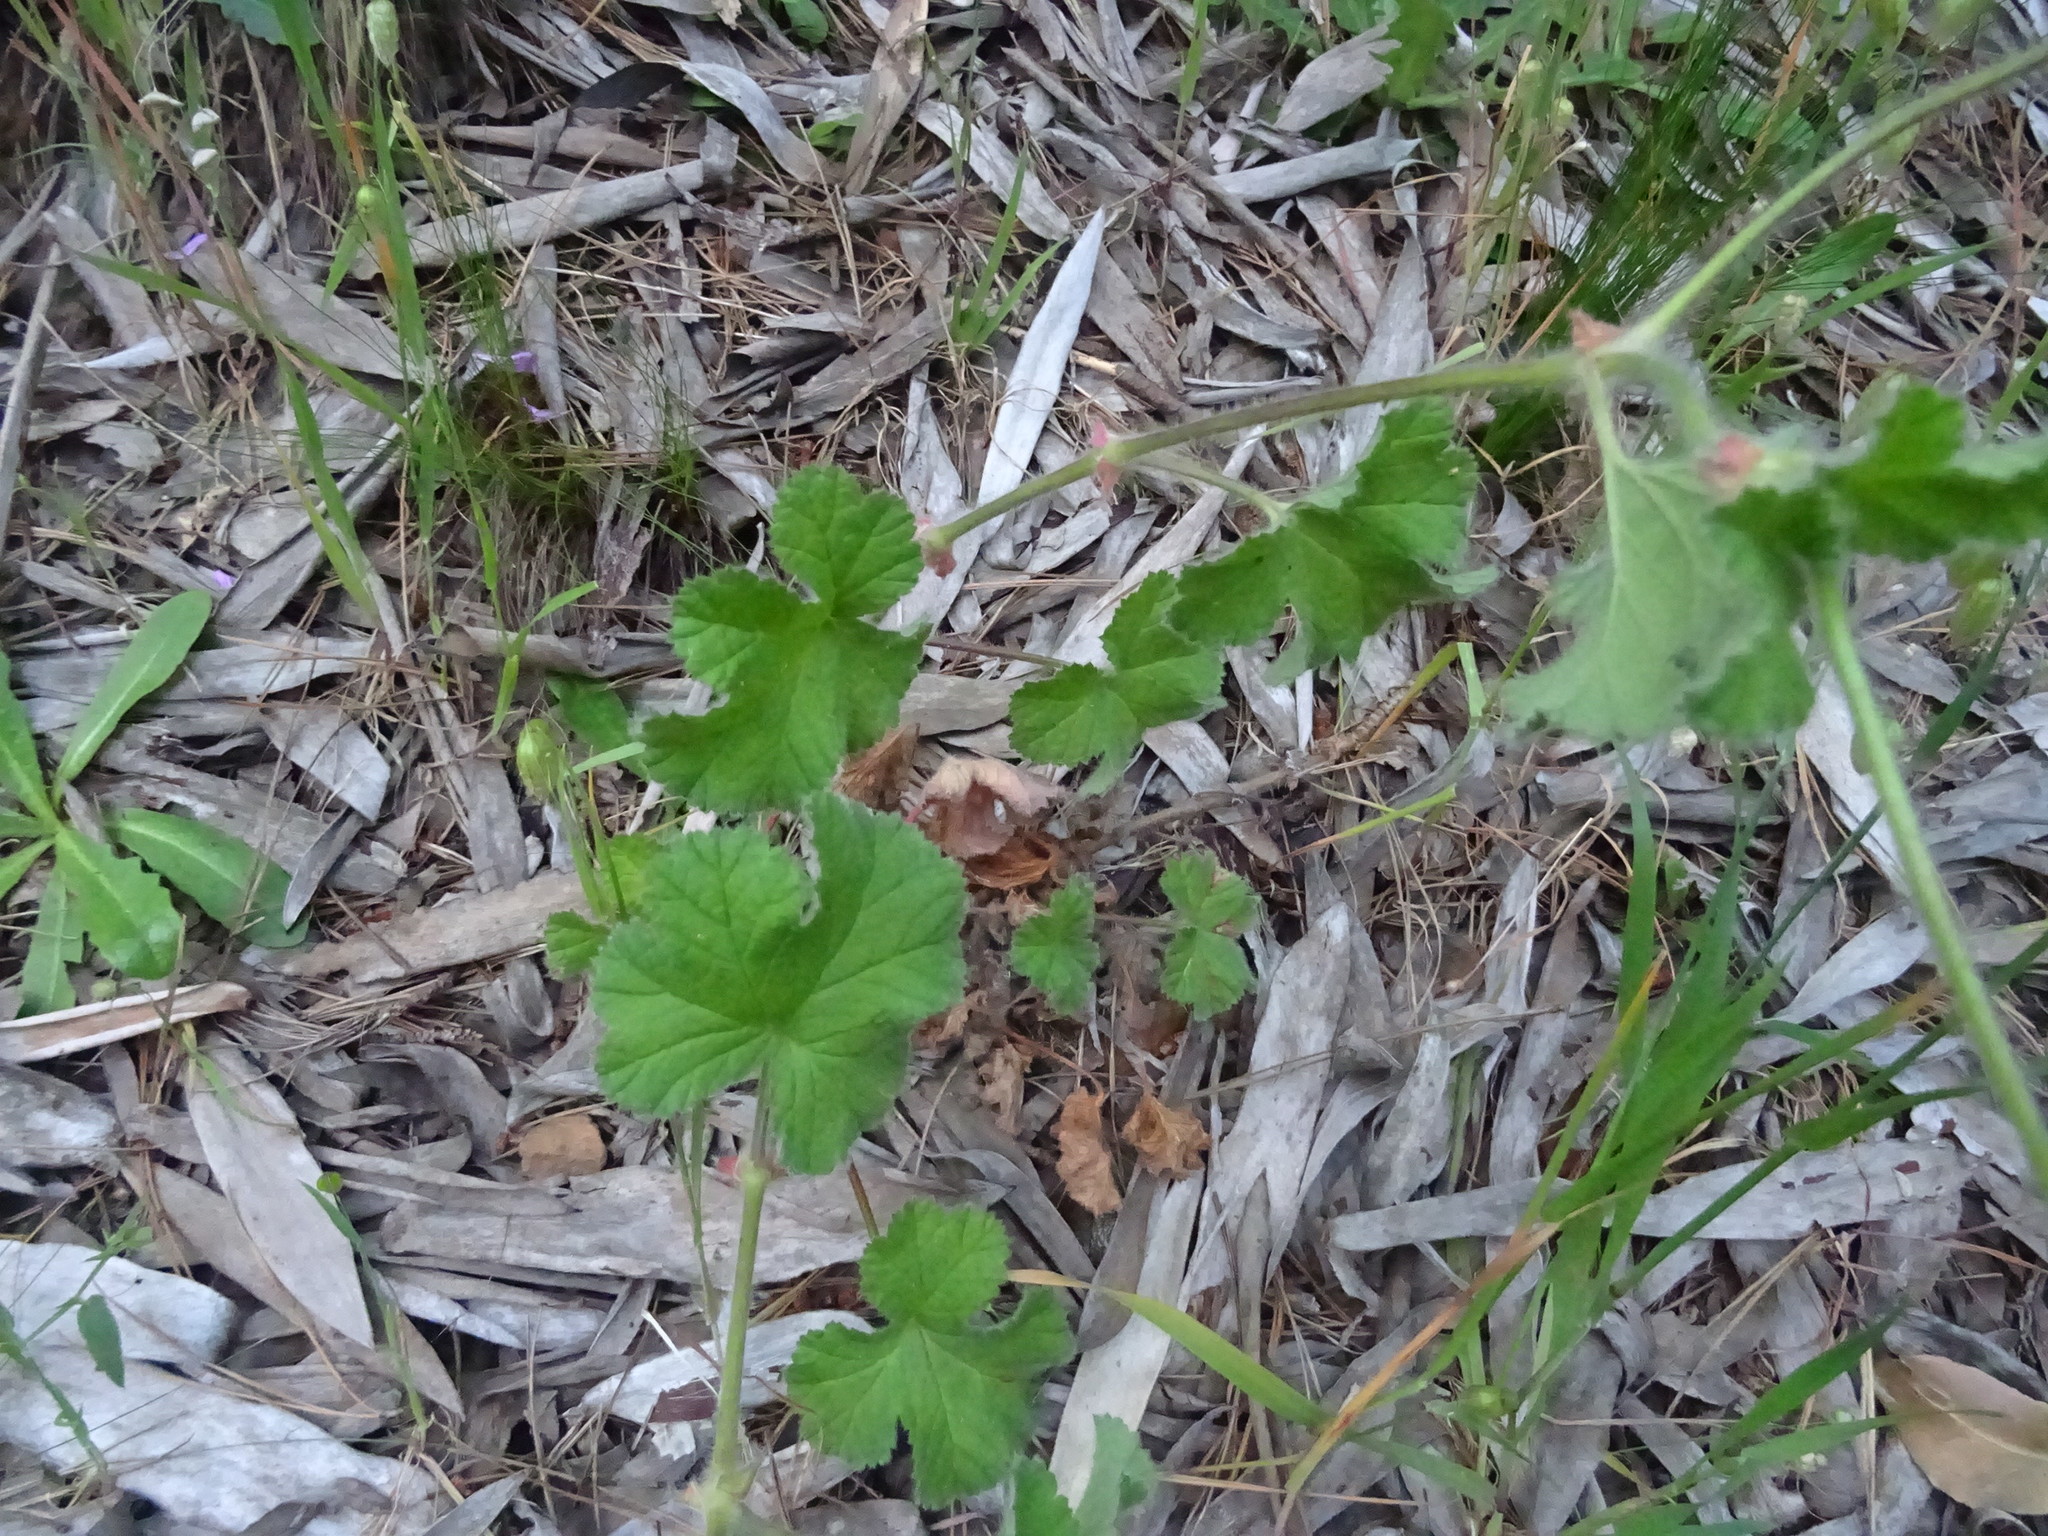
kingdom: Plantae
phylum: Tracheophyta
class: Magnoliopsida
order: Geraniales
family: Geraniaceae
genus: Pelargonium
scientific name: Pelargonium capitatum
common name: Rose scented geranium
